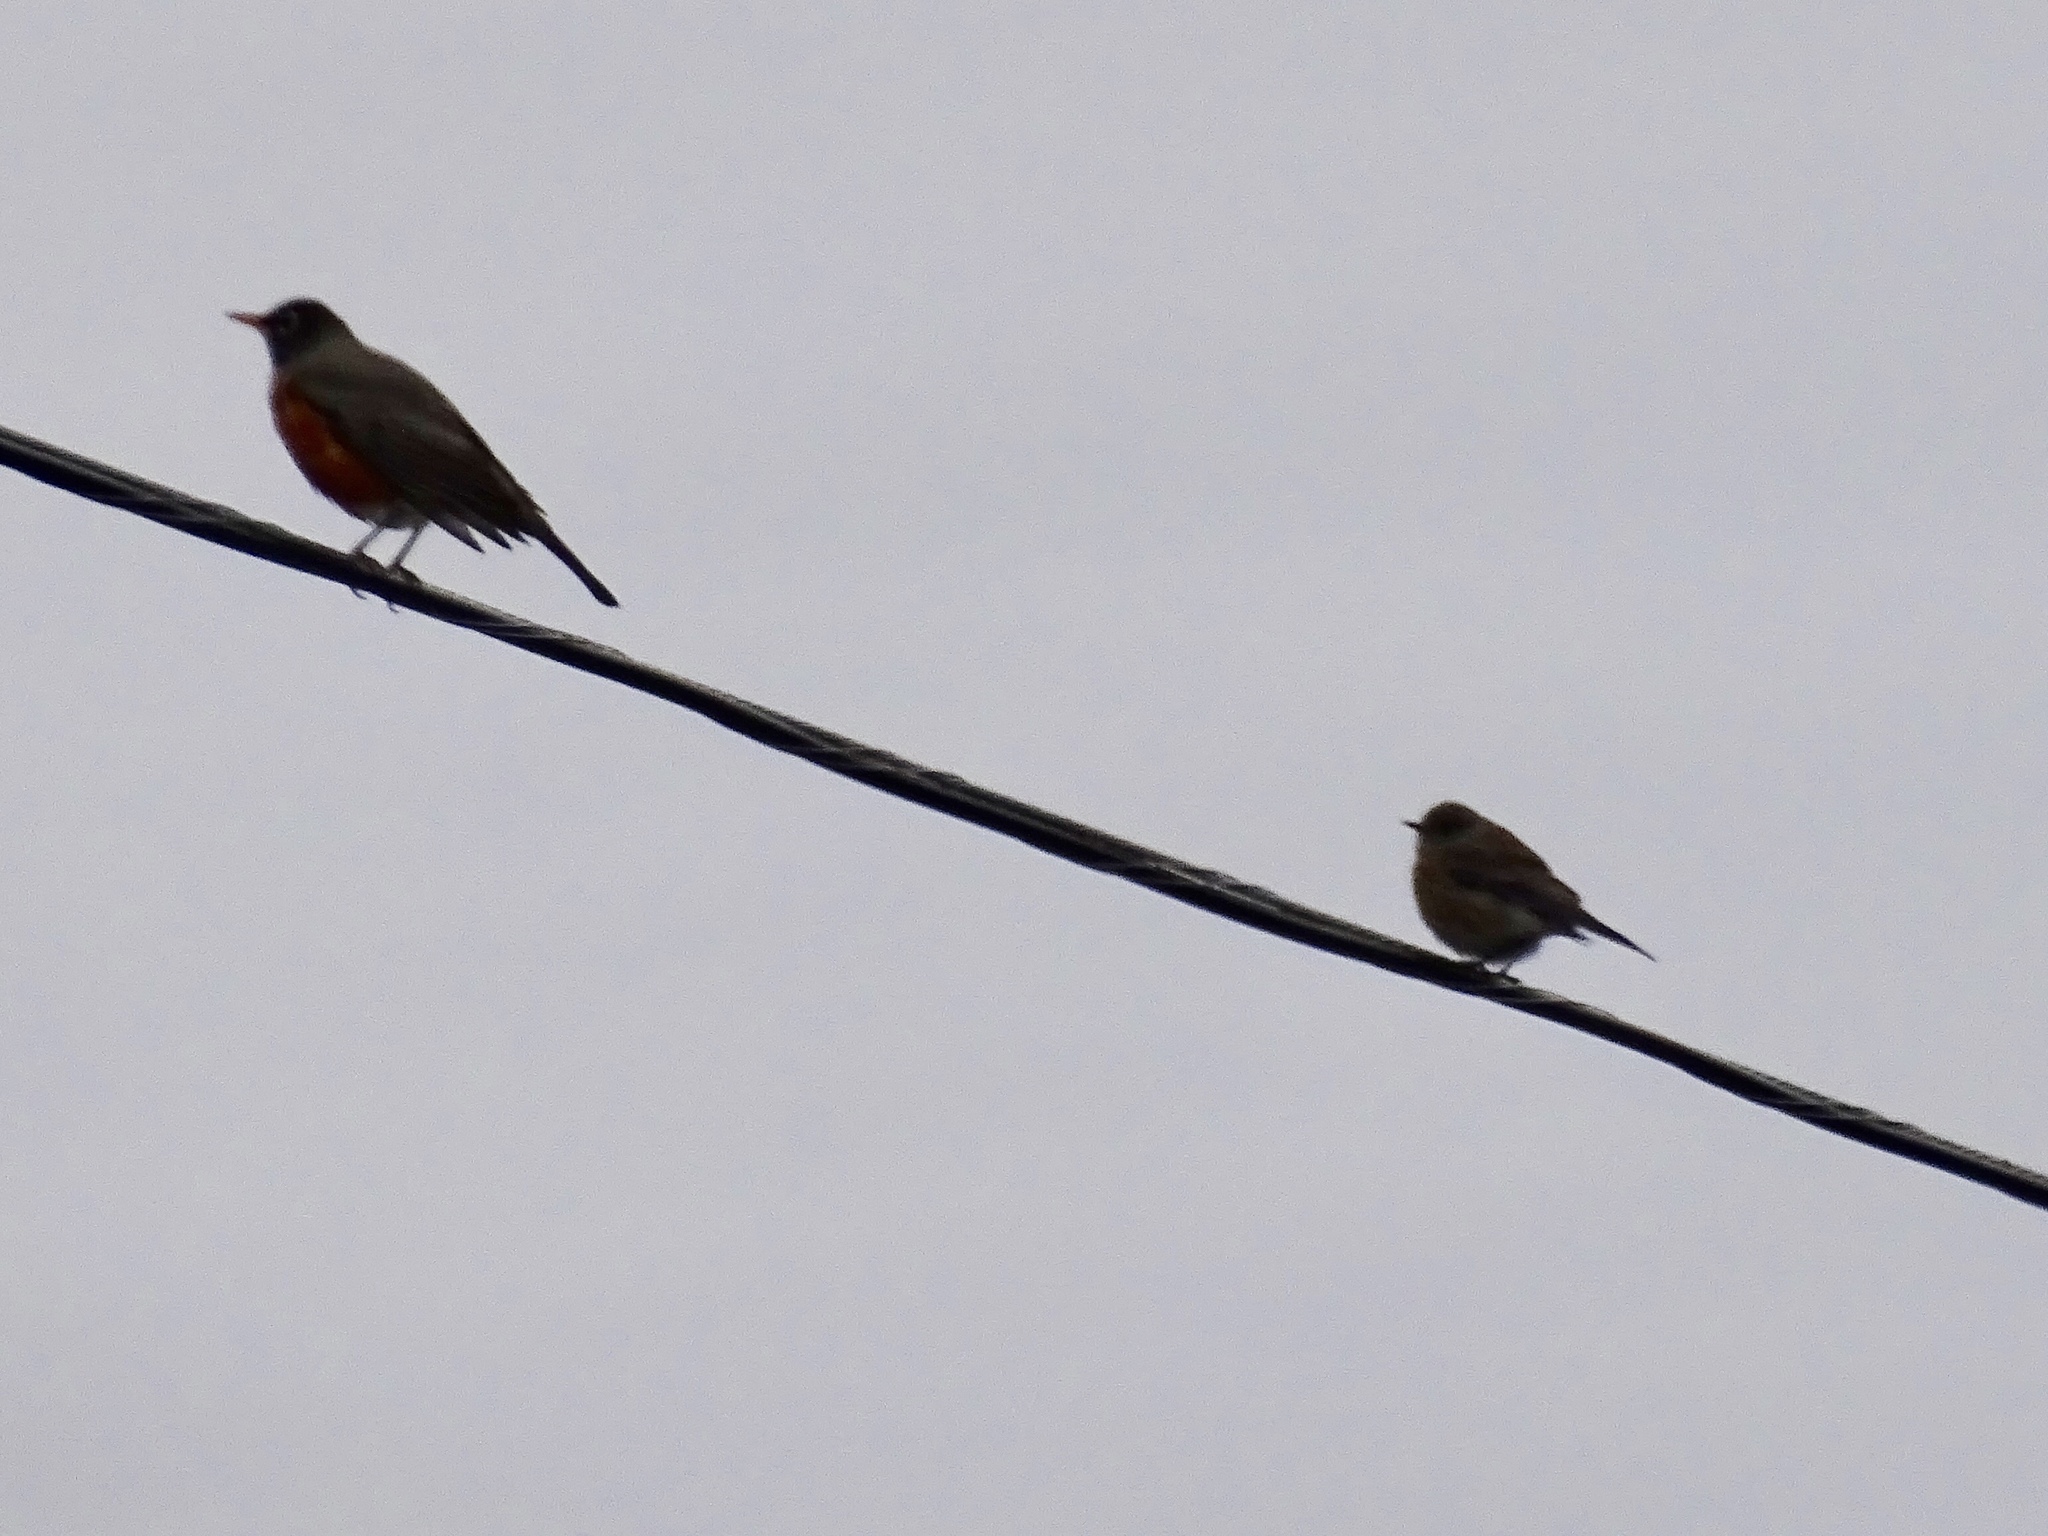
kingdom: Animalia
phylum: Chordata
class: Aves
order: Passeriformes
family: Turdidae
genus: Sialia
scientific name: Sialia mexicana
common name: Western bluebird
